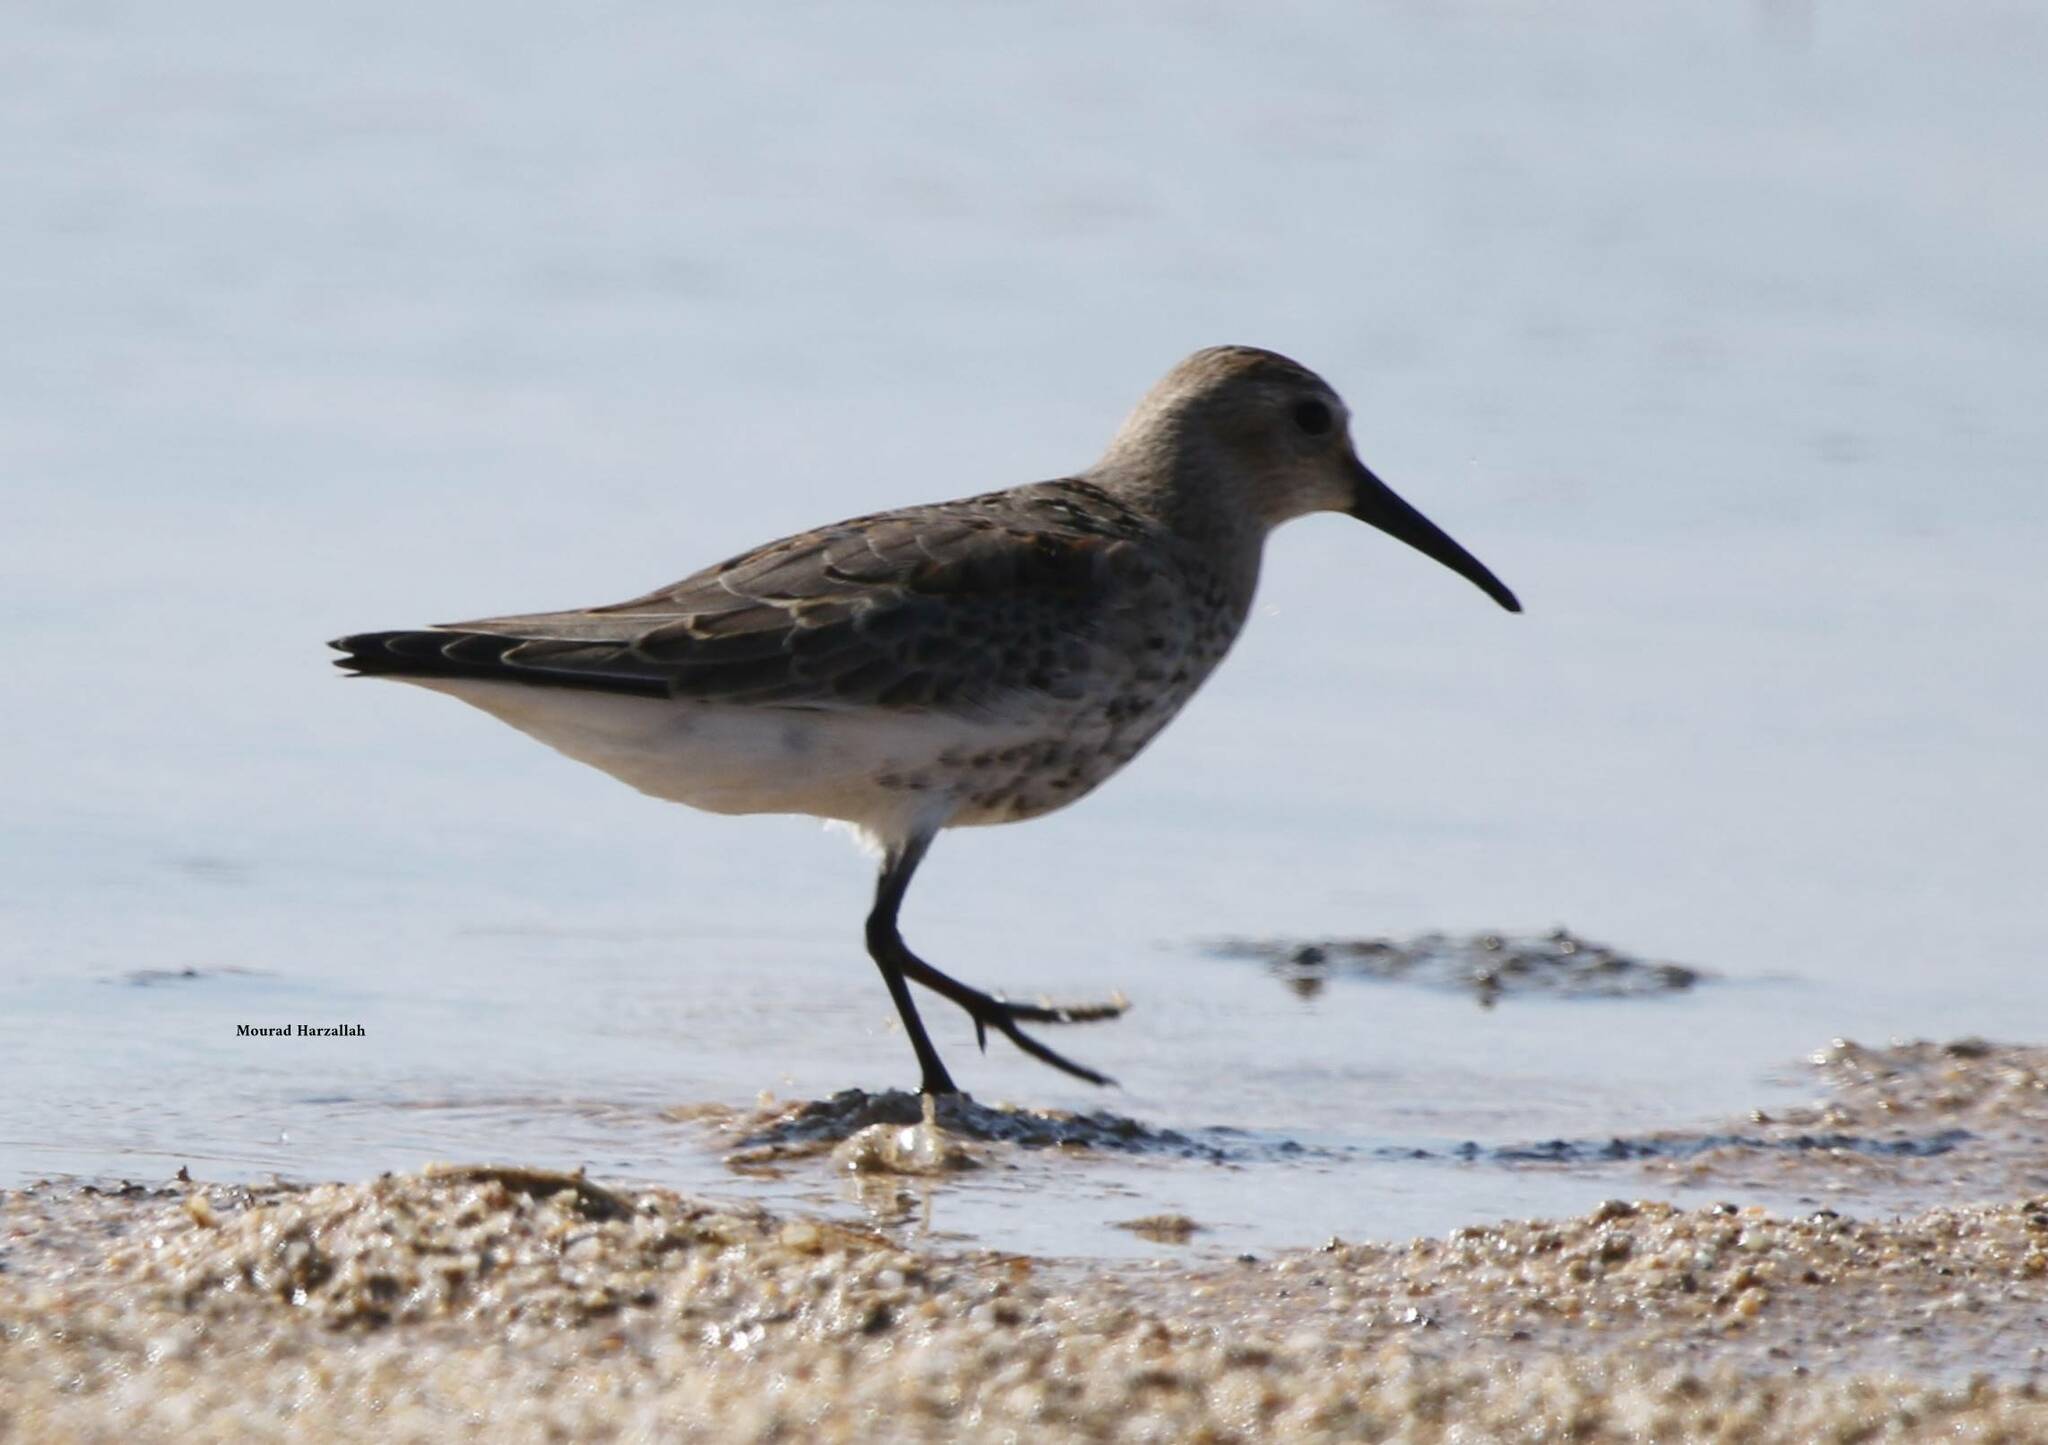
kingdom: Animalia
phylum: Chordata
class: Aves
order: Charadriiformes
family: Scolopacidae
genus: Calidris
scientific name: Calidris alpina
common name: Dunlin
